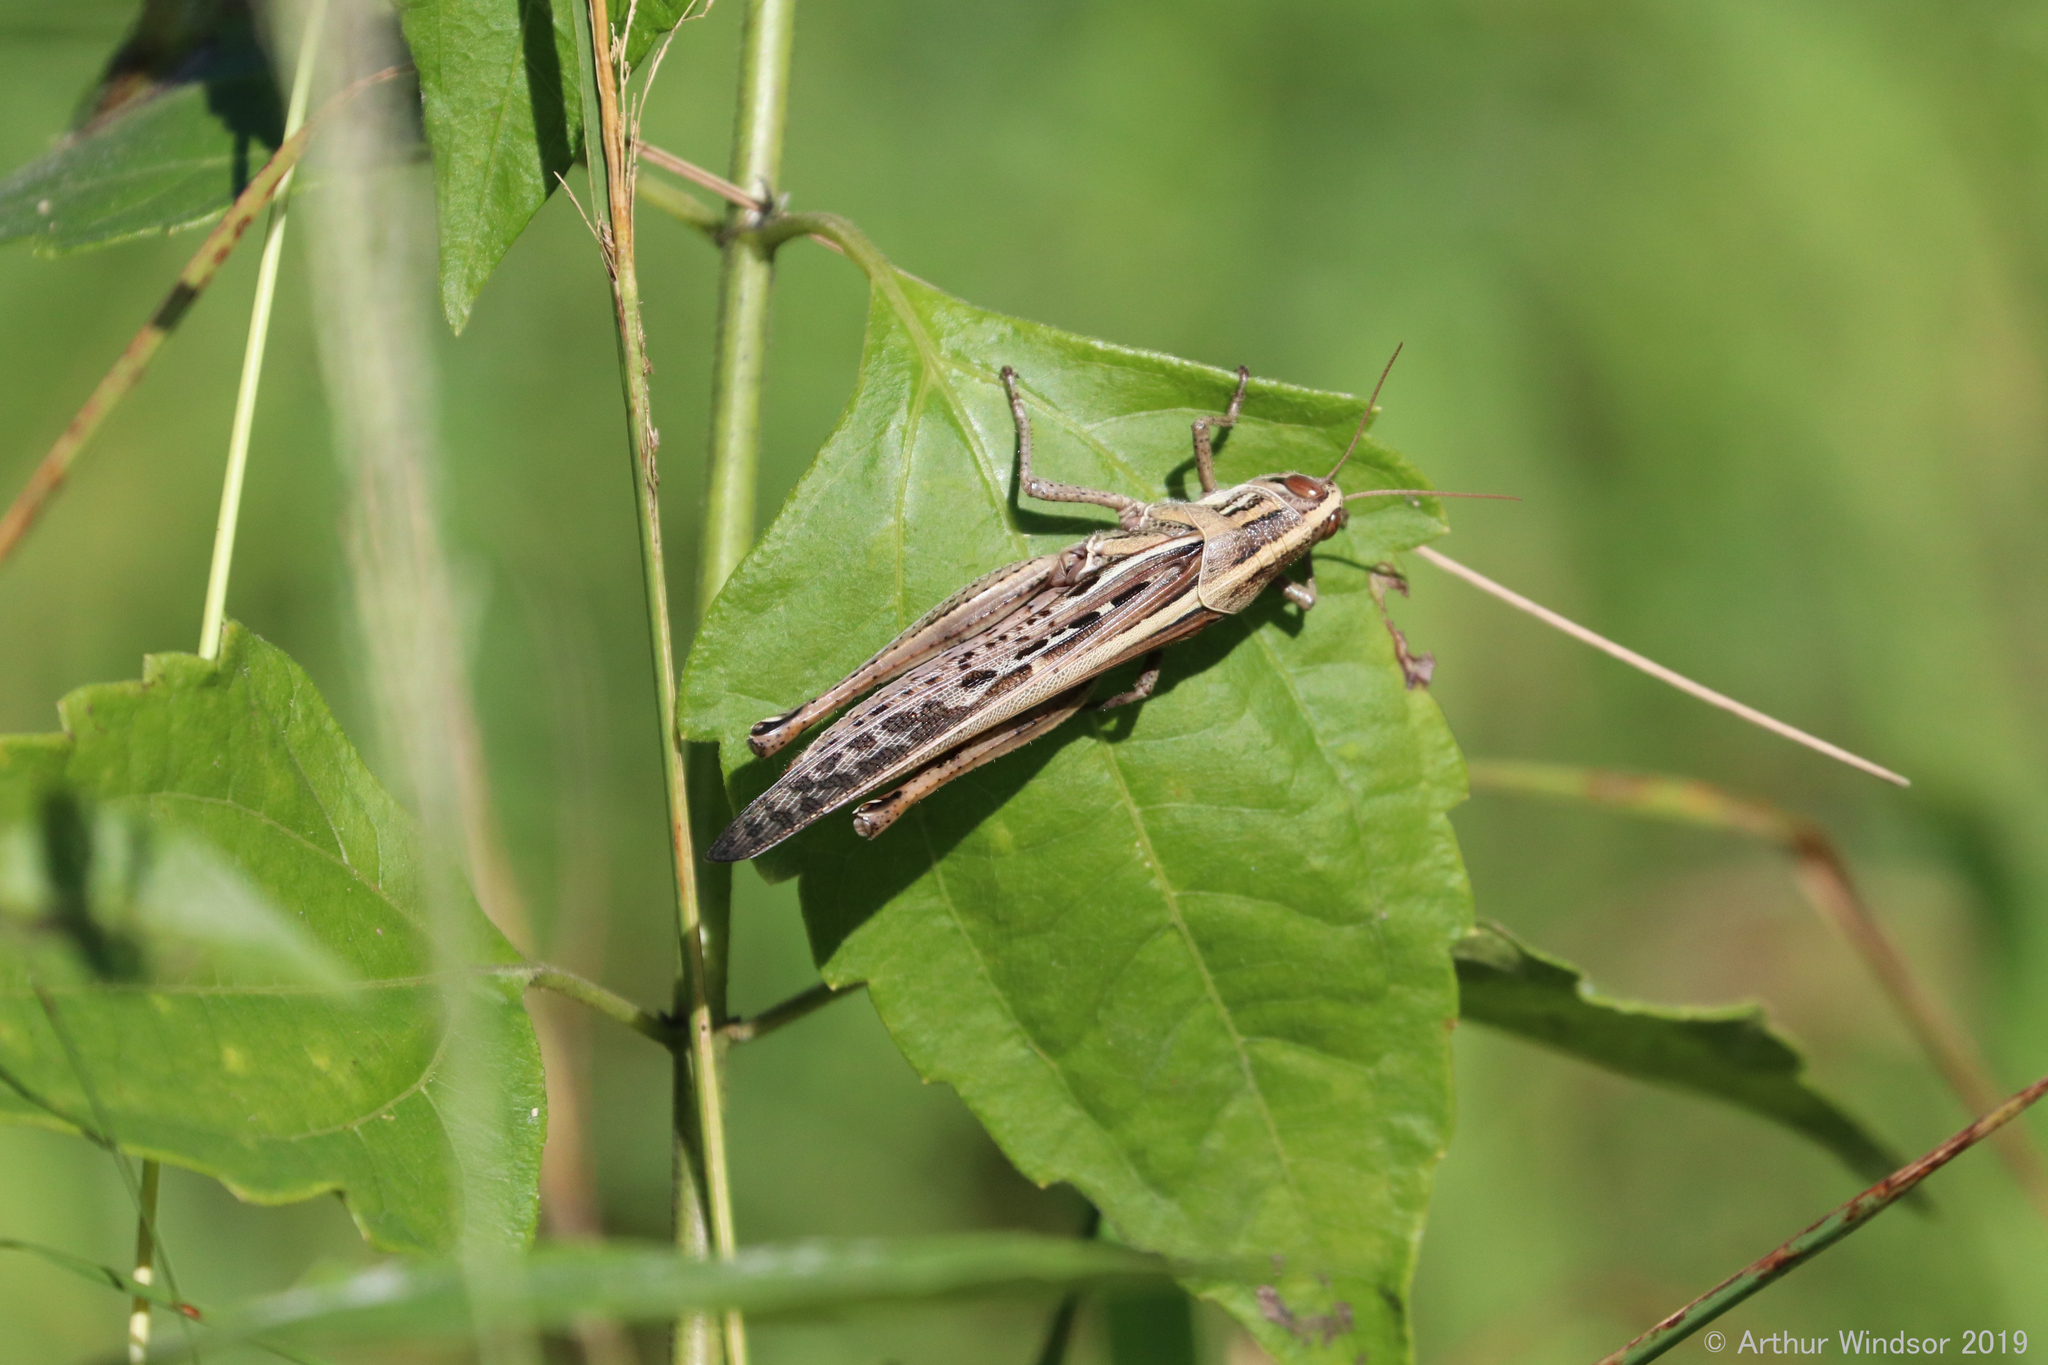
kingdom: Animalia
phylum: Arthropoda
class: Insecta
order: Orthoptera
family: Acrididae
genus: Schistocerca
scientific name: Schistocerca americana
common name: American bird locust
